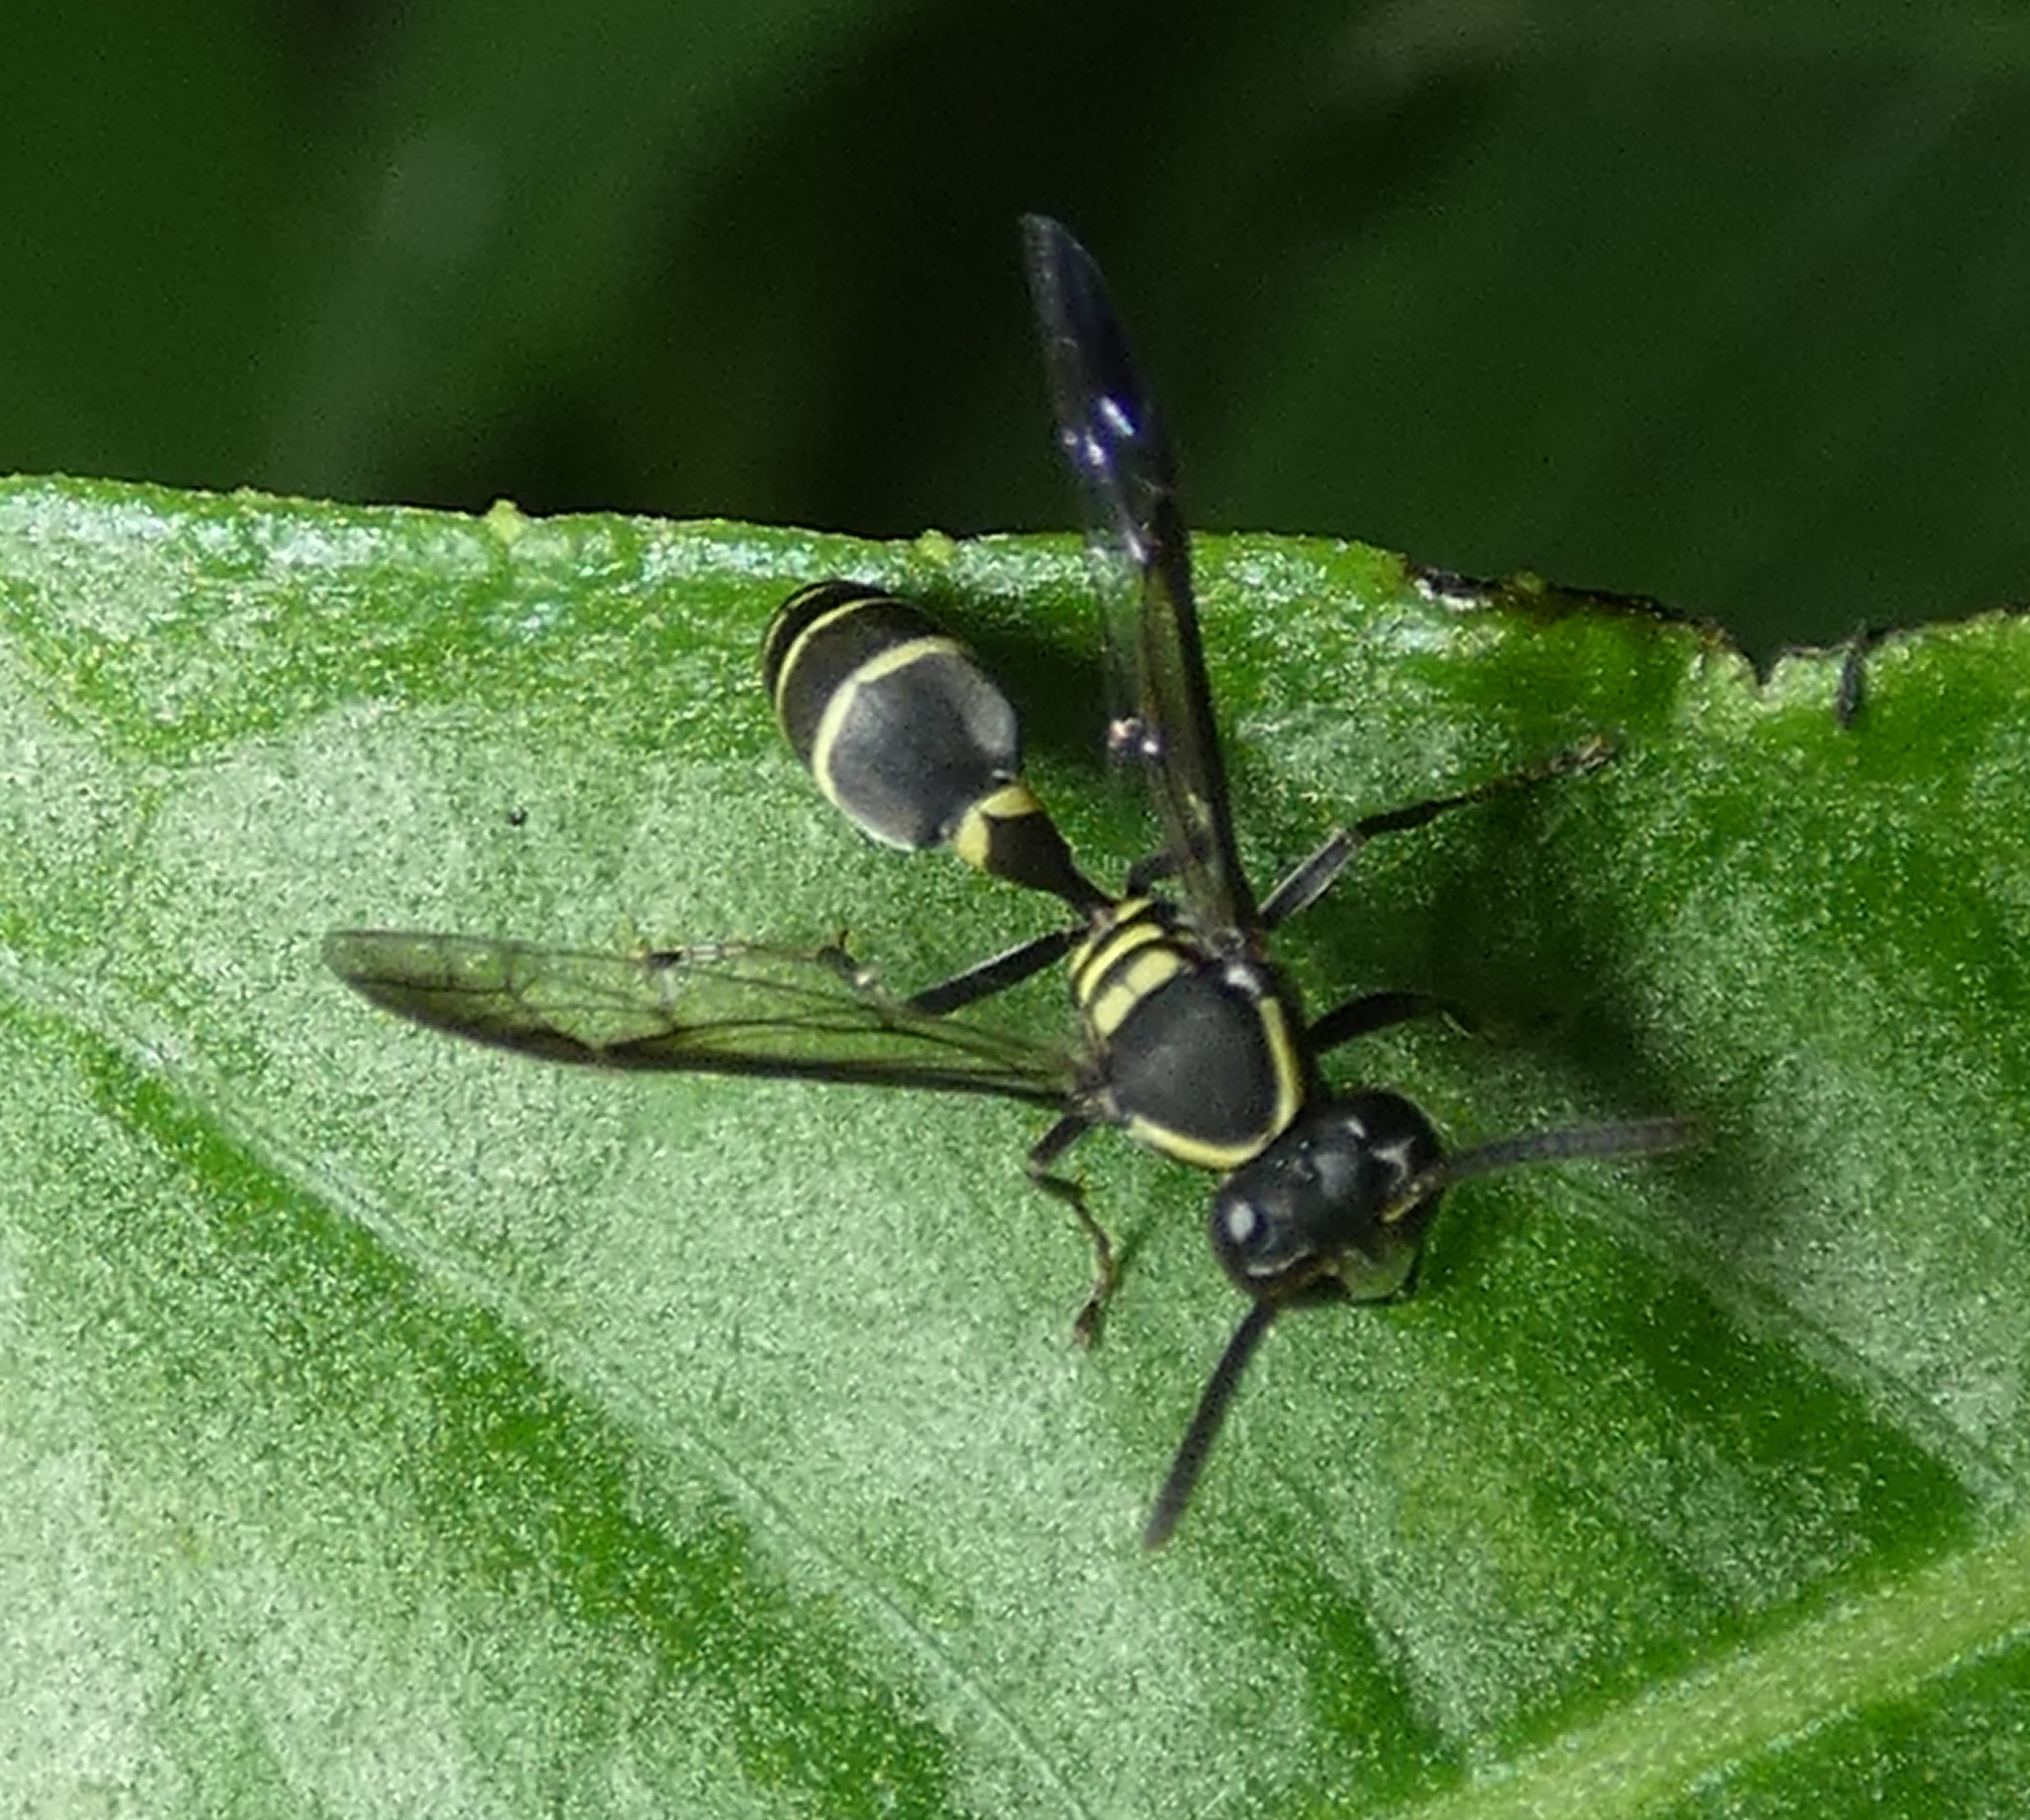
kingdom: Animalia
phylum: Arthropoda
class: Insecta
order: Hymenoptera
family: Eumenidae
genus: Polybia
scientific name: Polybia occidentalis
